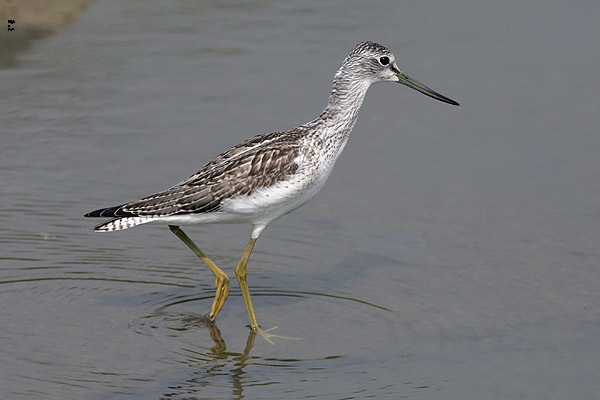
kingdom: Animalia
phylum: Chordata
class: Aves
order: Charadriiformes
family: Scolopacidae
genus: Tringa
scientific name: Tringa nebularia
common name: Common greenshank
